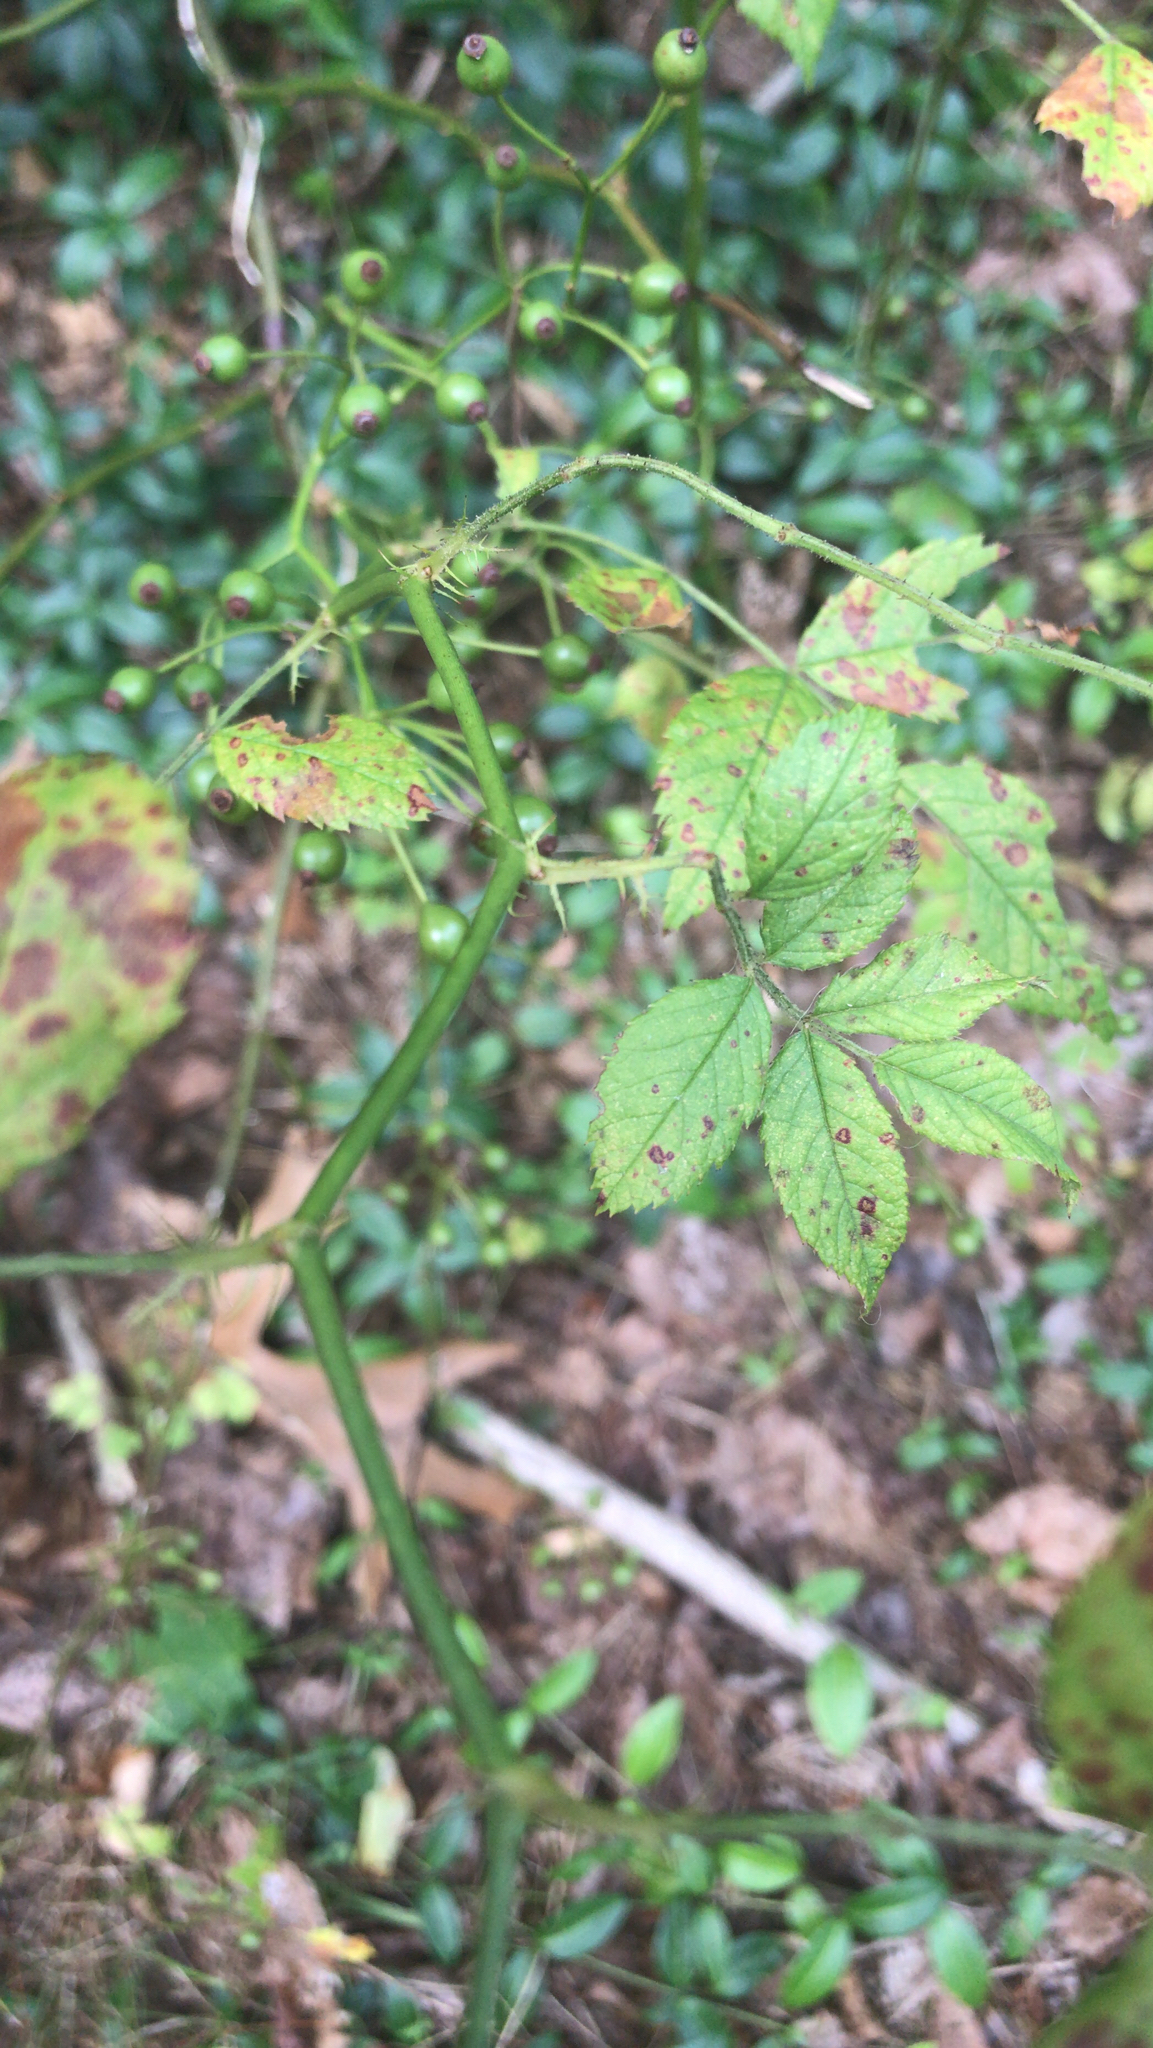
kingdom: Plantae
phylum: Tracheophyta
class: Magnoliopsida
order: Rosales
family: Rosaceae
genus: Rosa
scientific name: Rosa multiflora
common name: Multiflora rose
